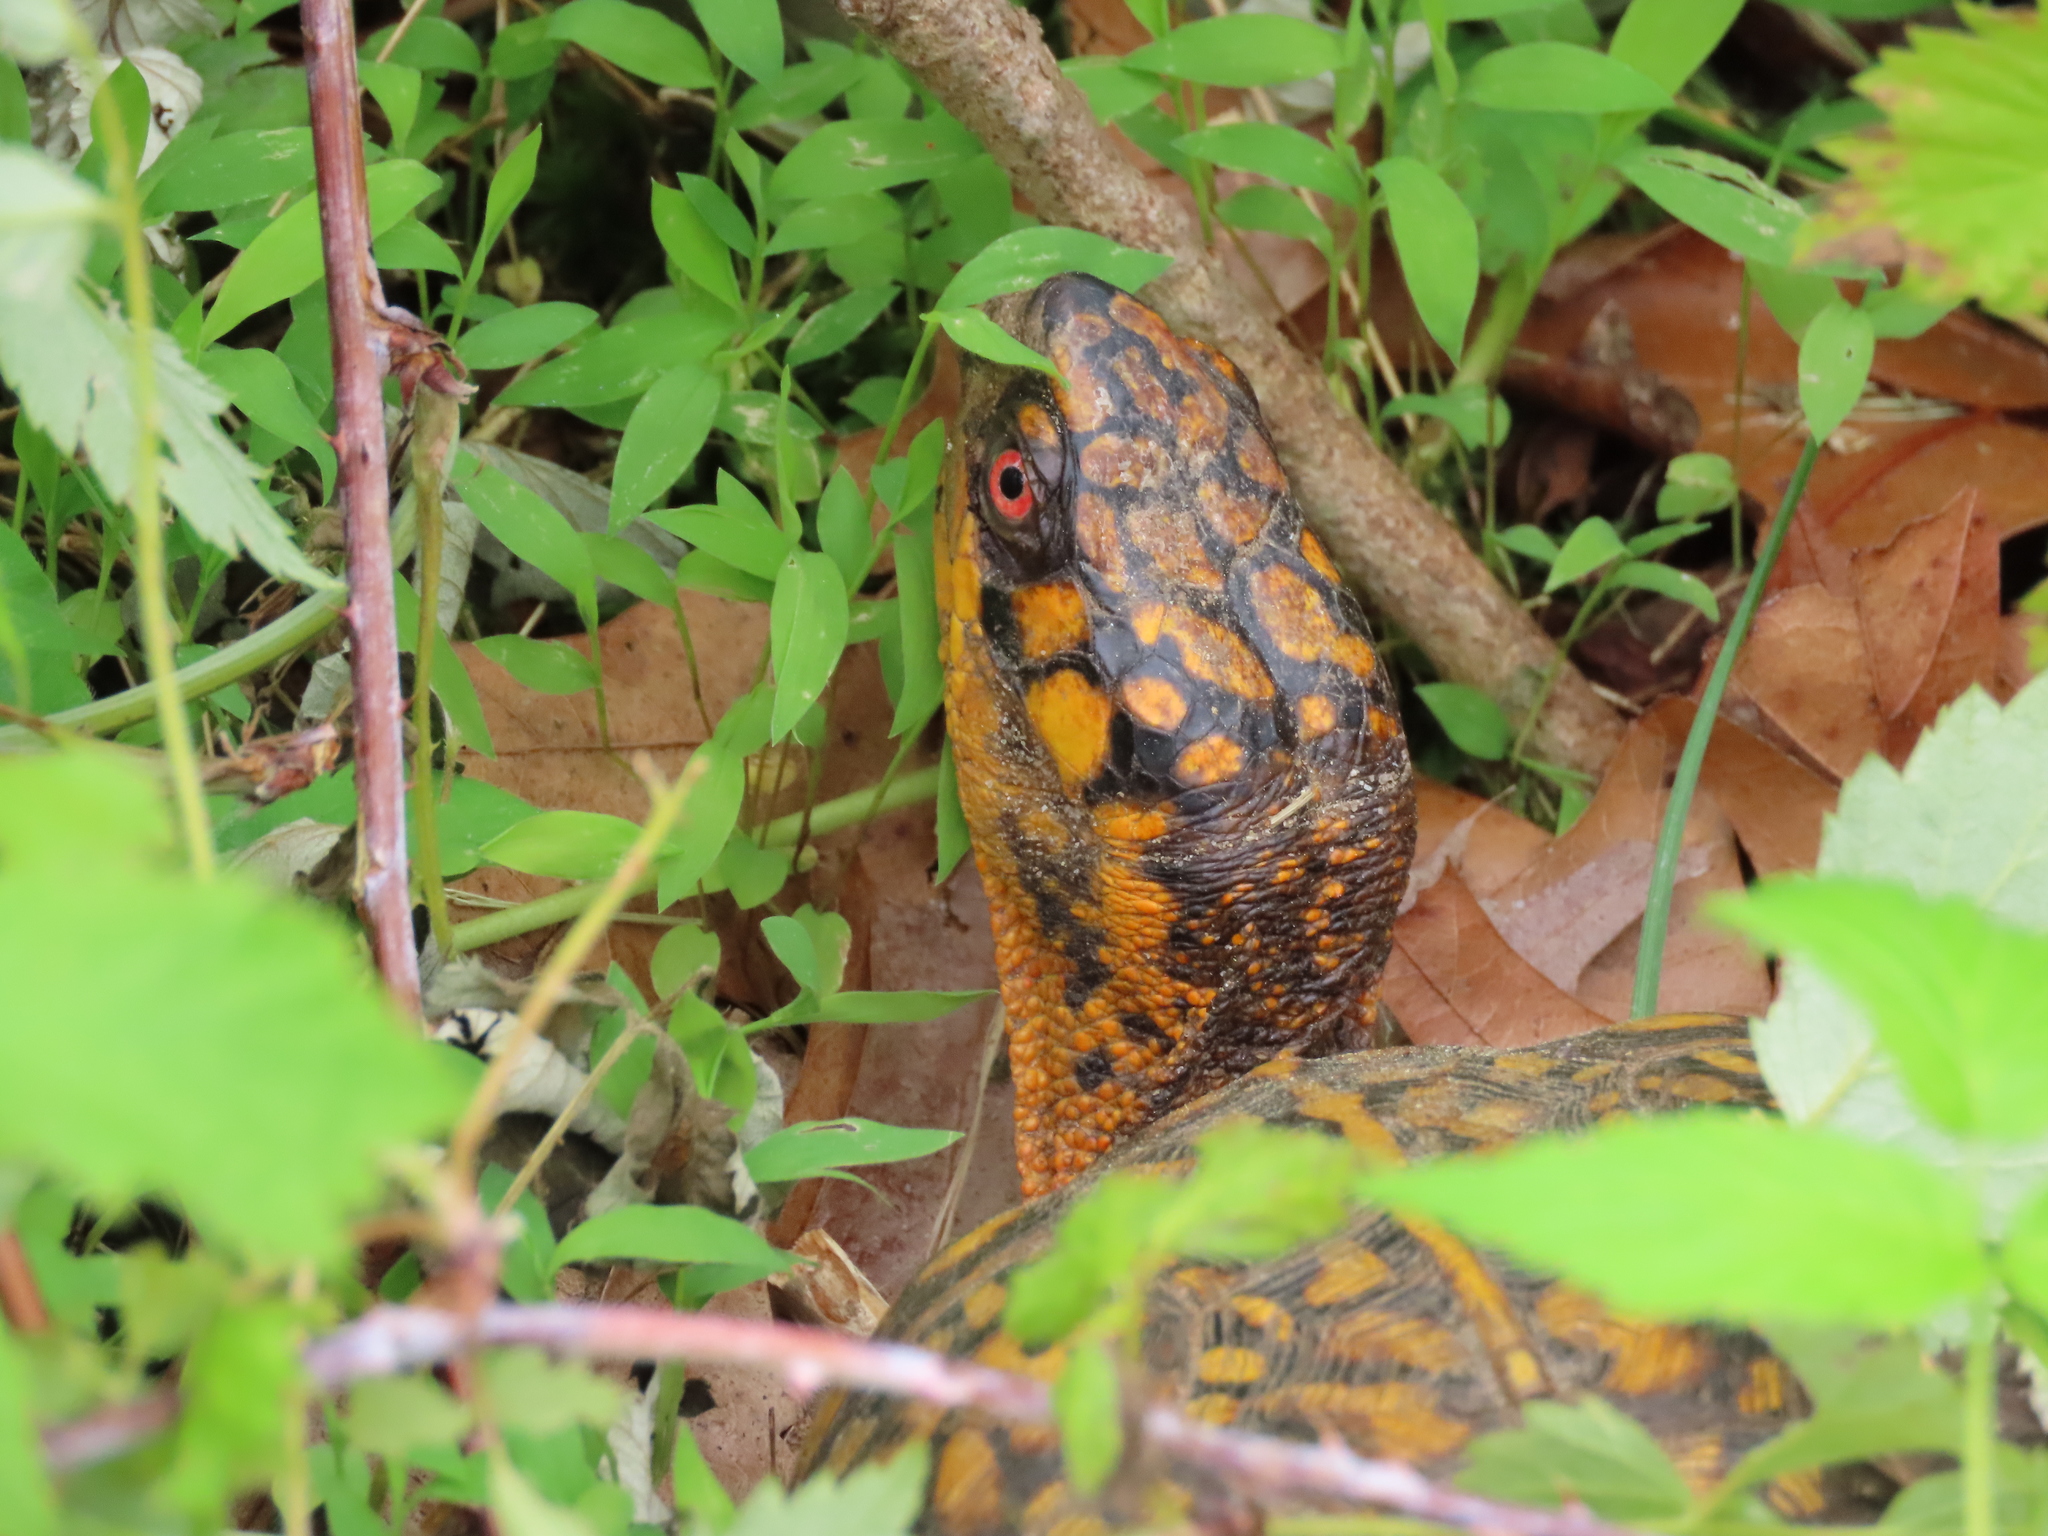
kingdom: Animalia
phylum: Chordata
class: Testudines
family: Emydidae
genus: Terrapene
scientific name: Terrapene carolina
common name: Common box turtle
